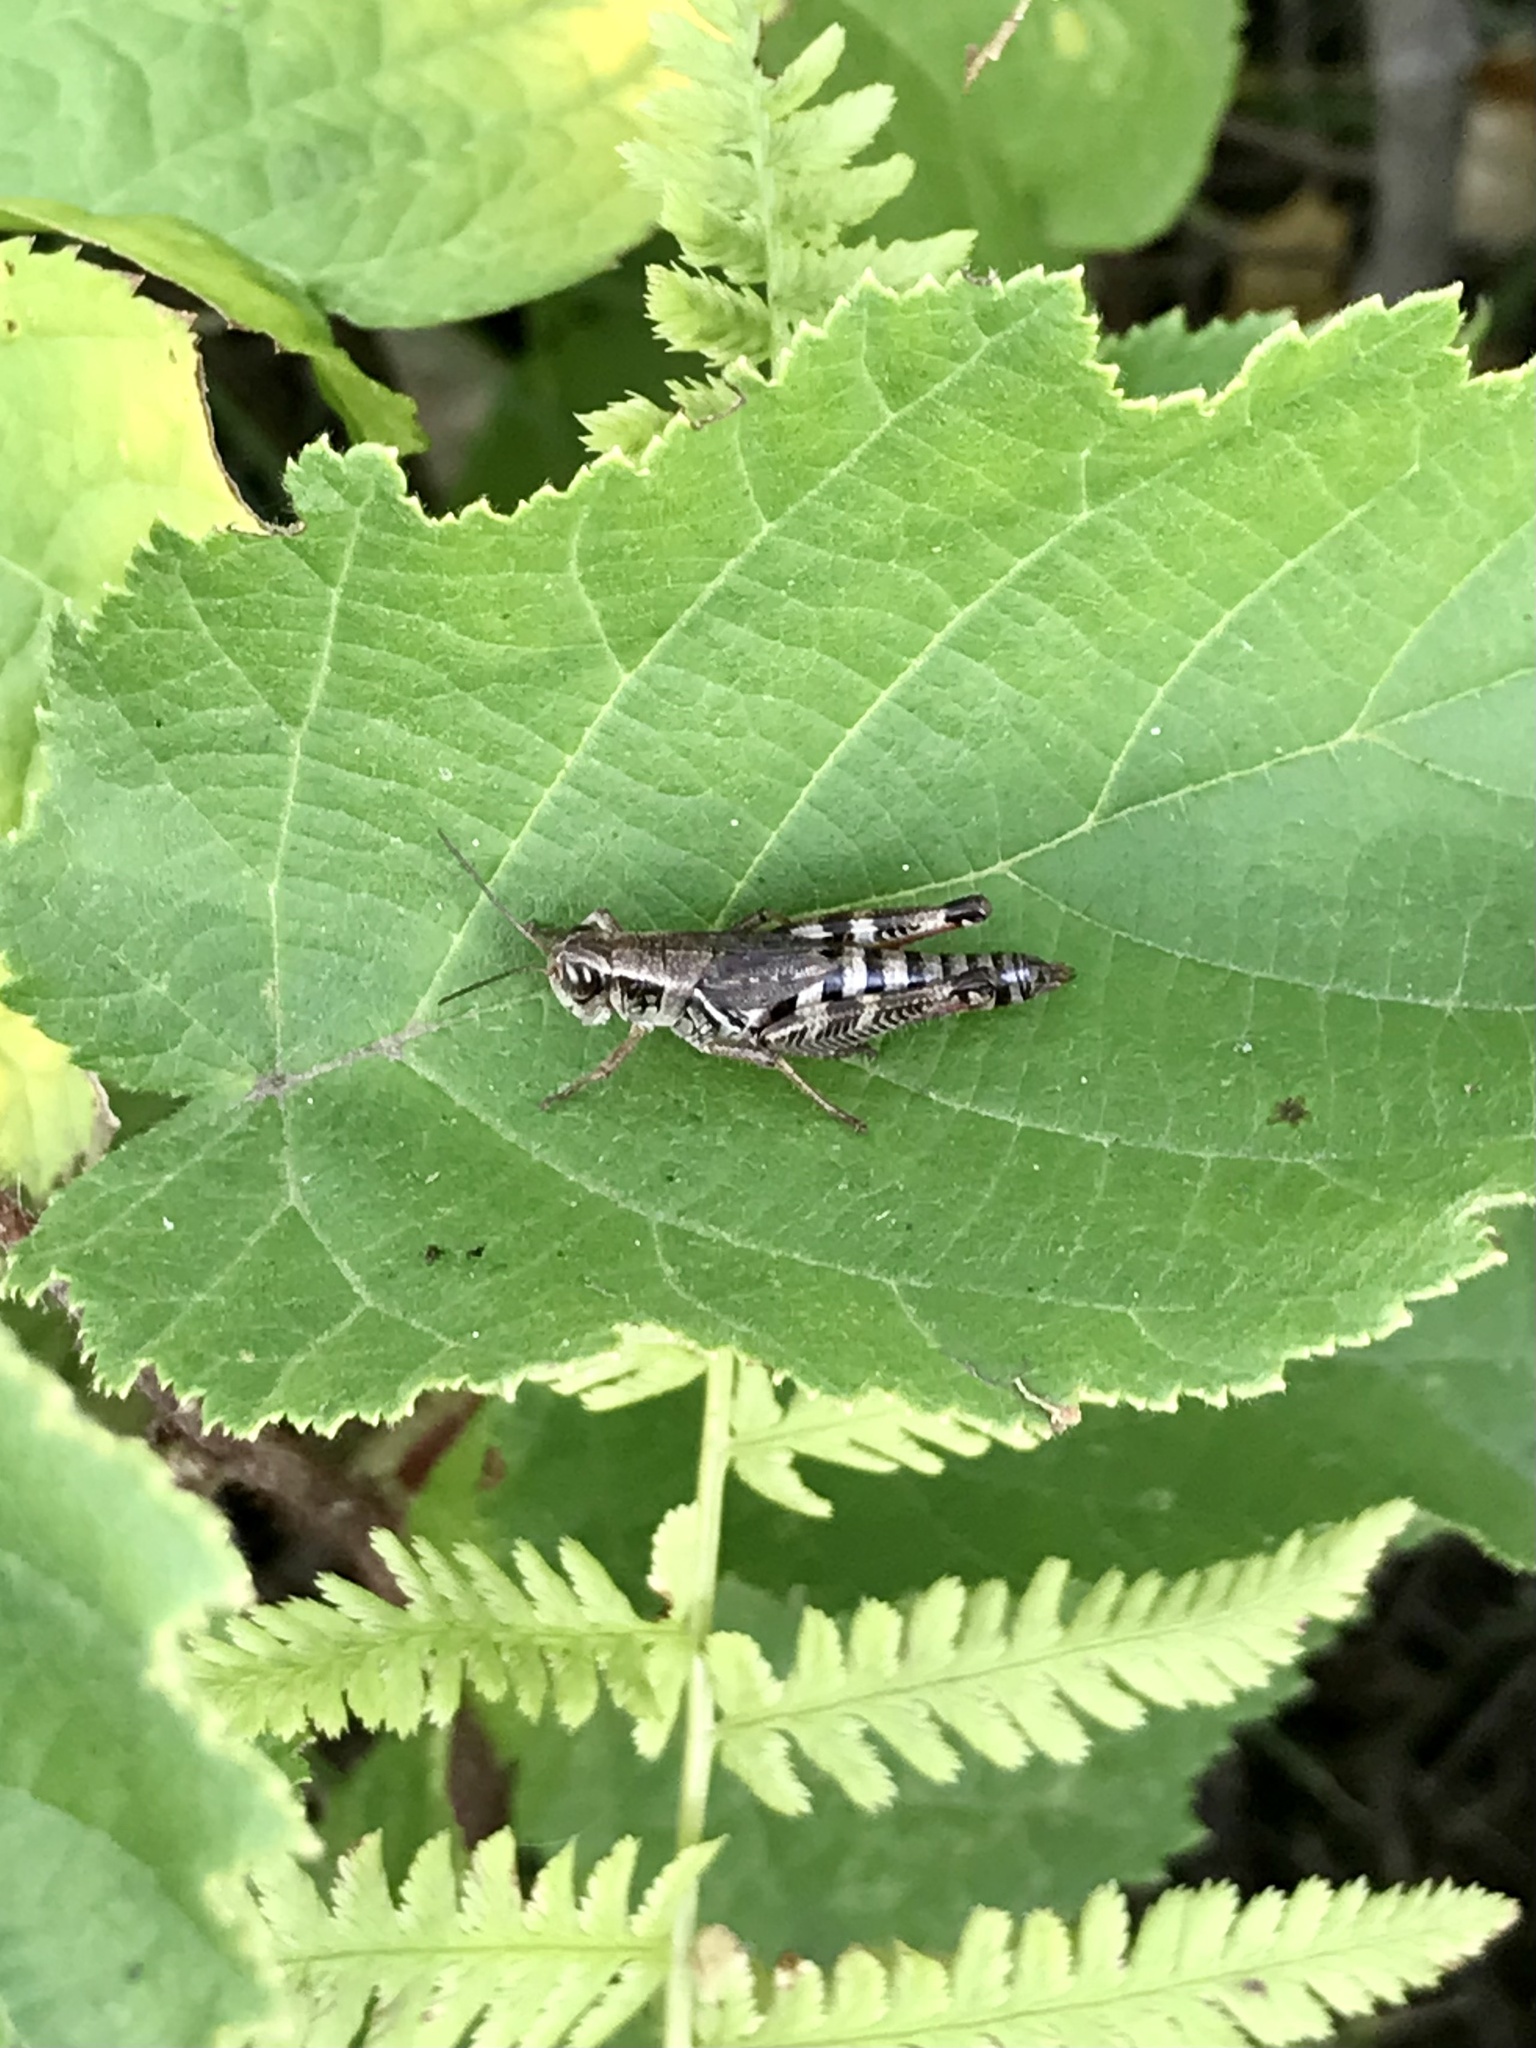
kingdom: Animalia
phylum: Arthropoda
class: Insecta
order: Orthoptera
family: Acrididae
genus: Melanoplus
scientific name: Melanoplus dawsoni
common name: Dawson grasshopper
